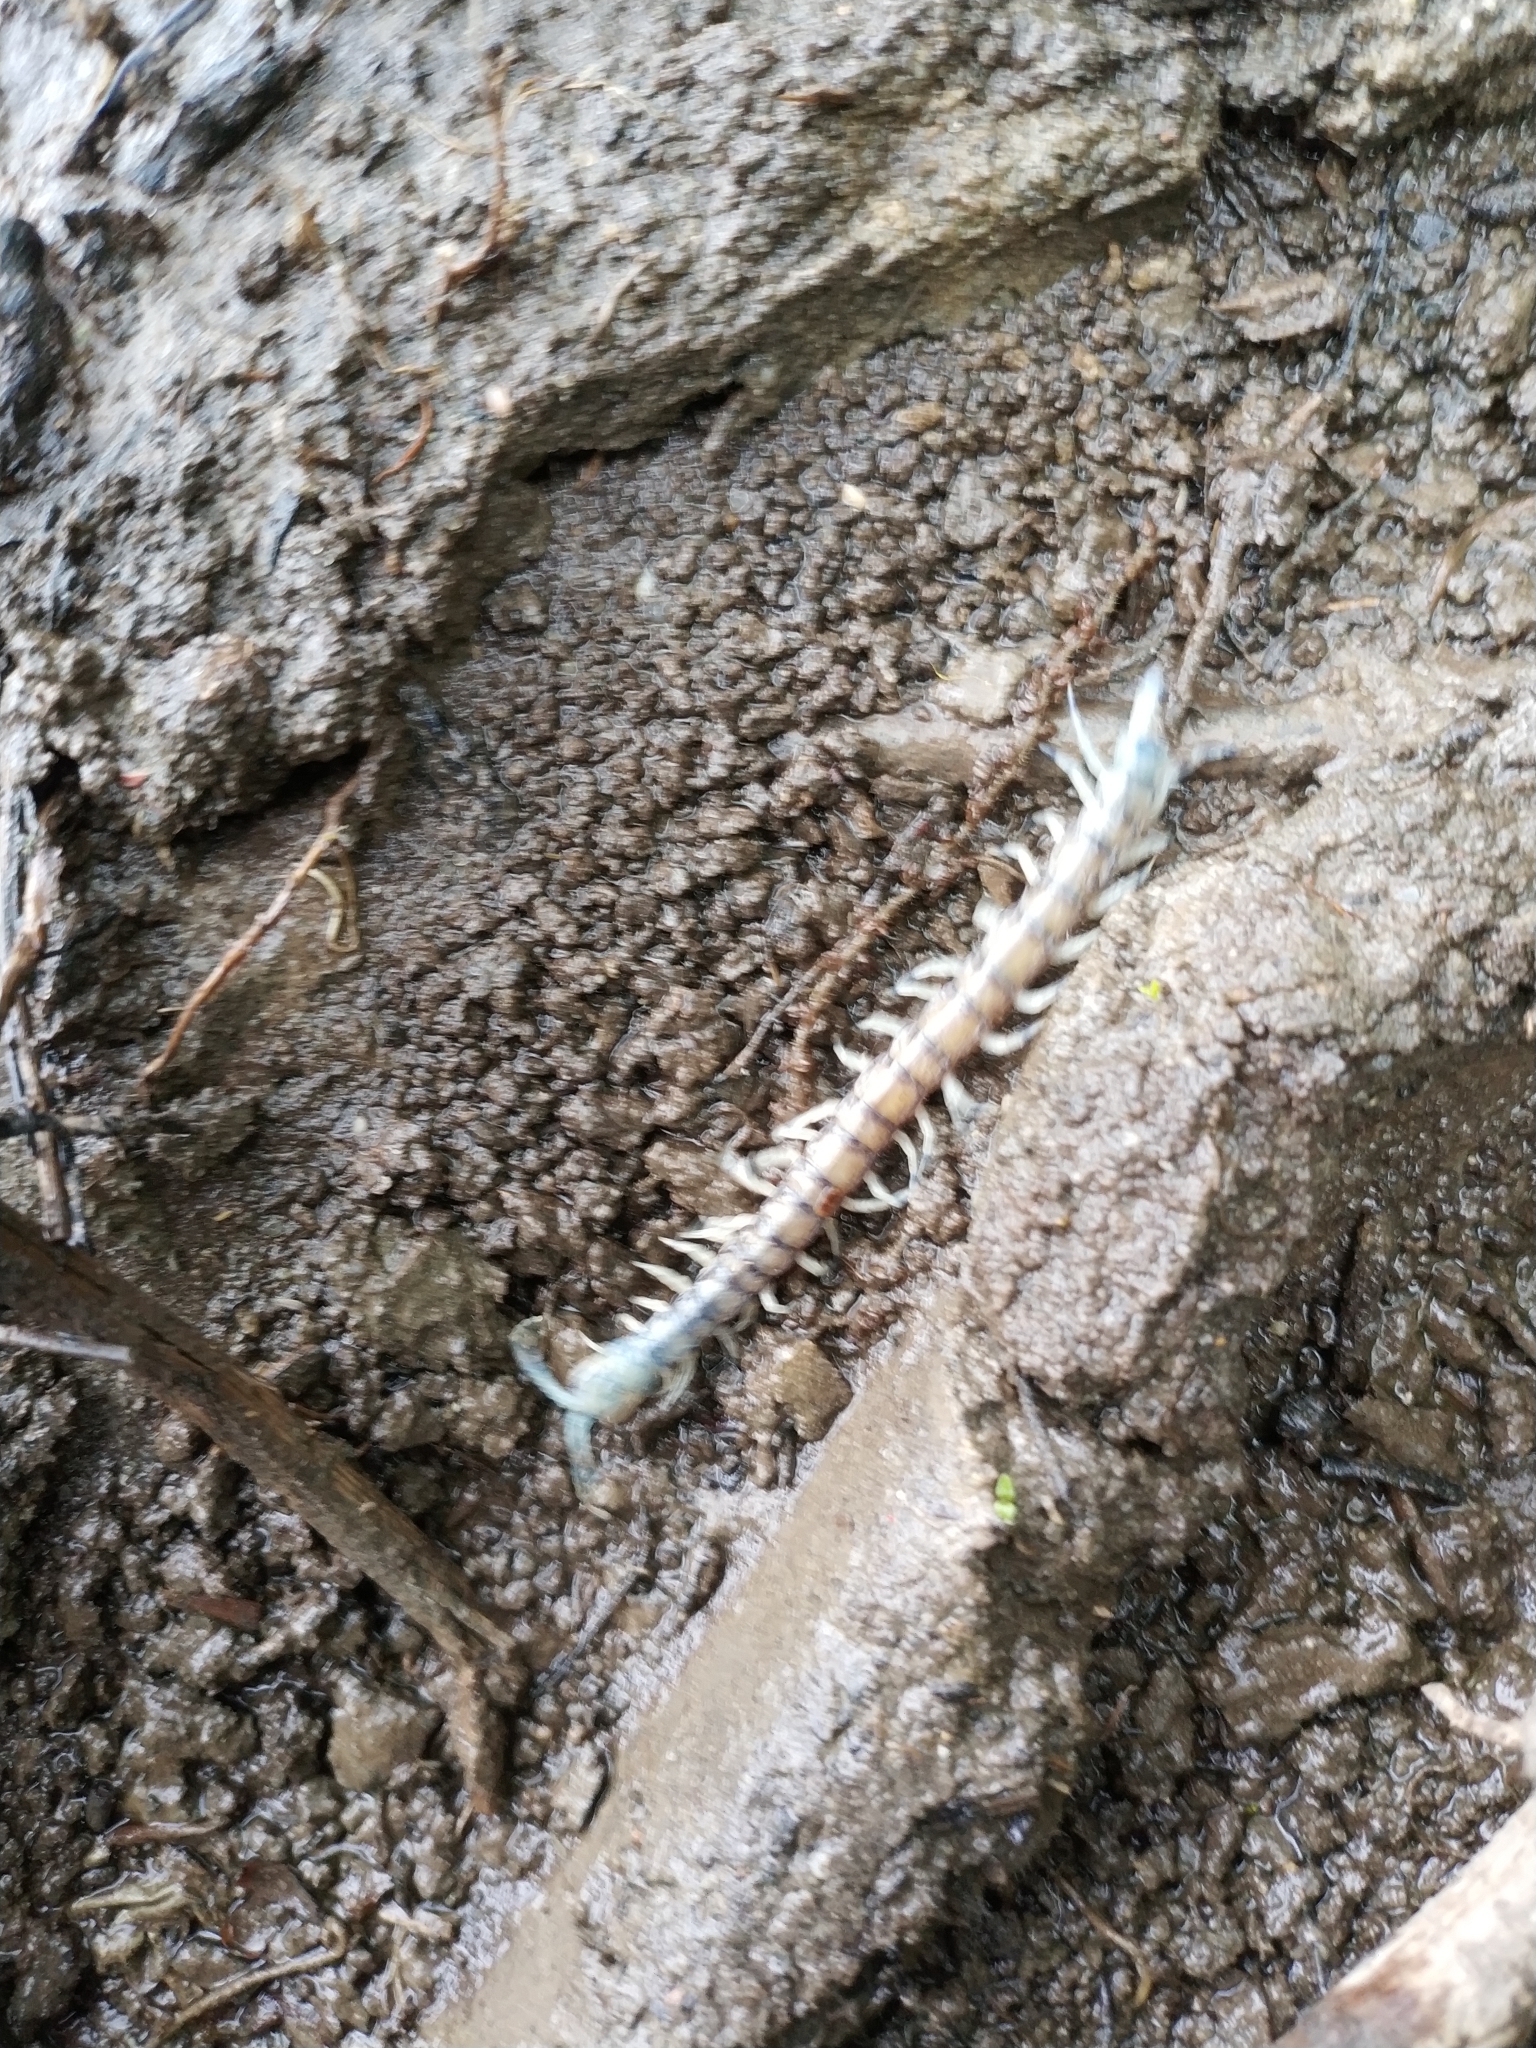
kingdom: Animalia
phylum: Arthropoda
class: Chilopoda
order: Scolopendromorpha
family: Scolopendridae
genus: Hemiscolopendra
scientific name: Hemiscolopendra marginata
